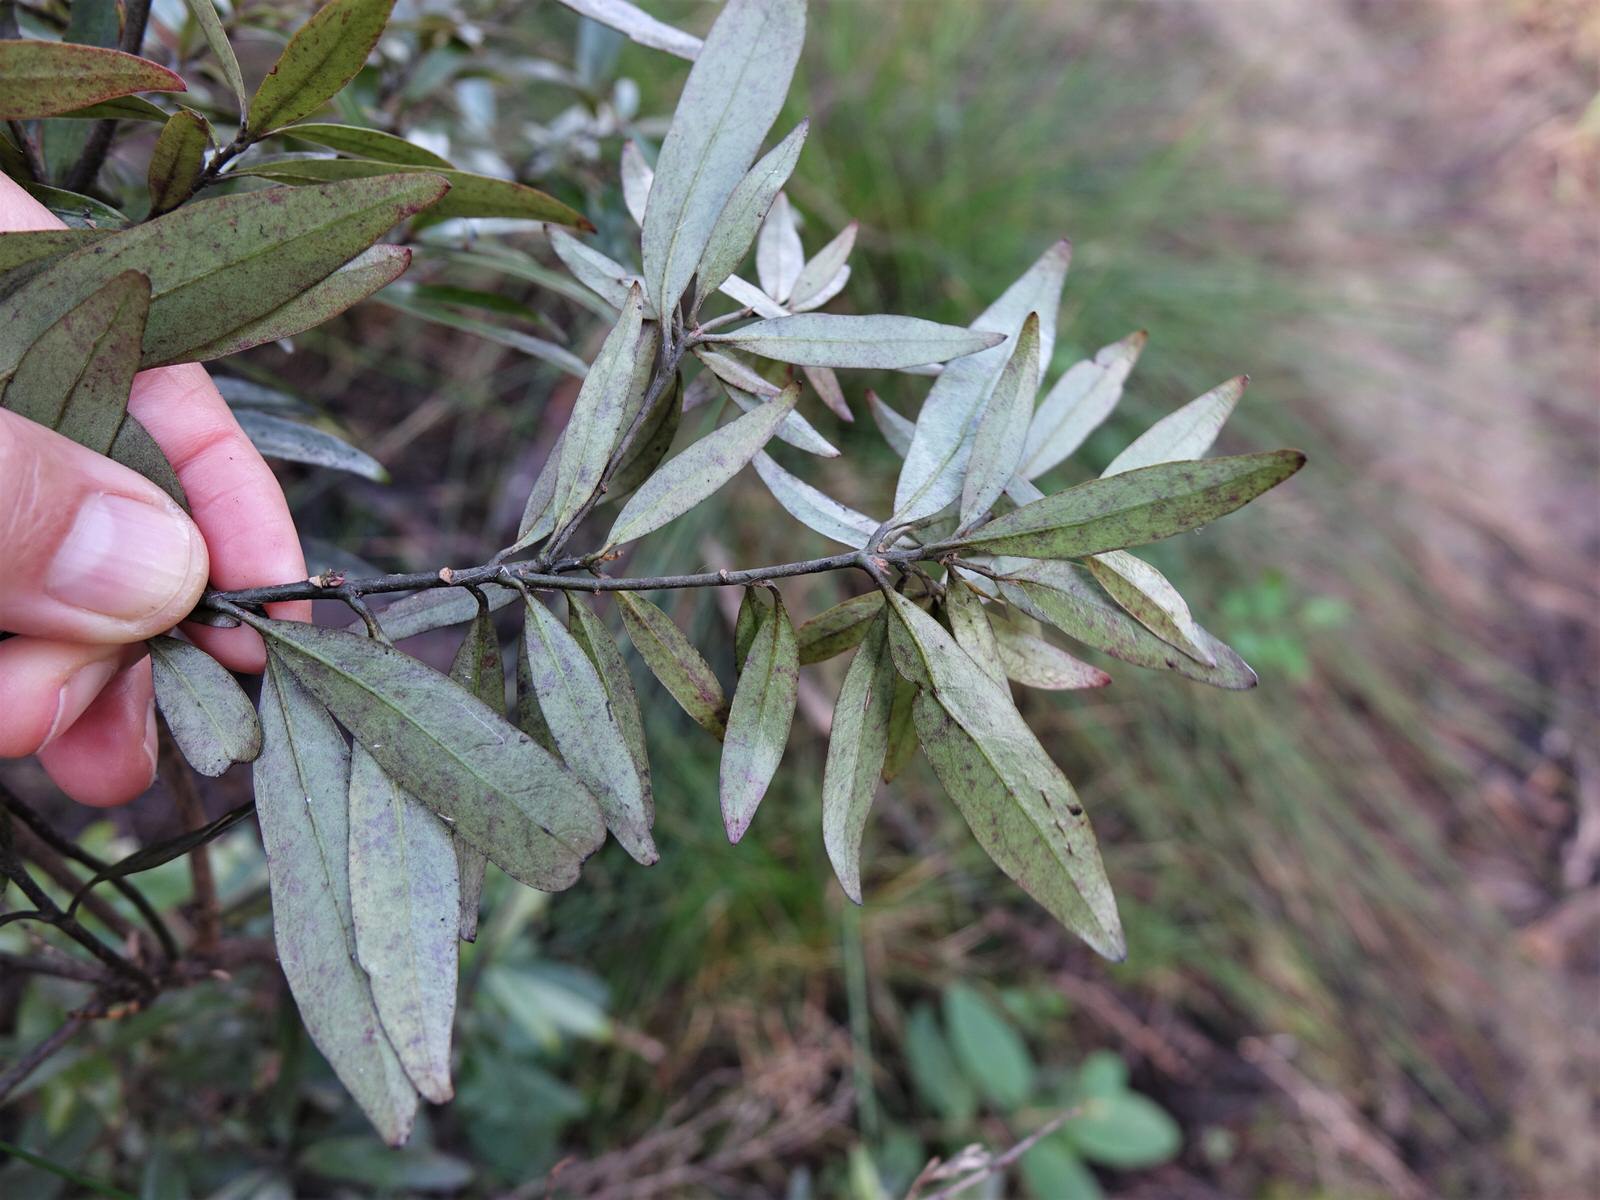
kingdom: Plantae
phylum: Tracheophyta
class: Magnoliopsida
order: Asterales
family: Alseuosmiaceae
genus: Alseuosmia
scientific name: Alseuosmia banksii
